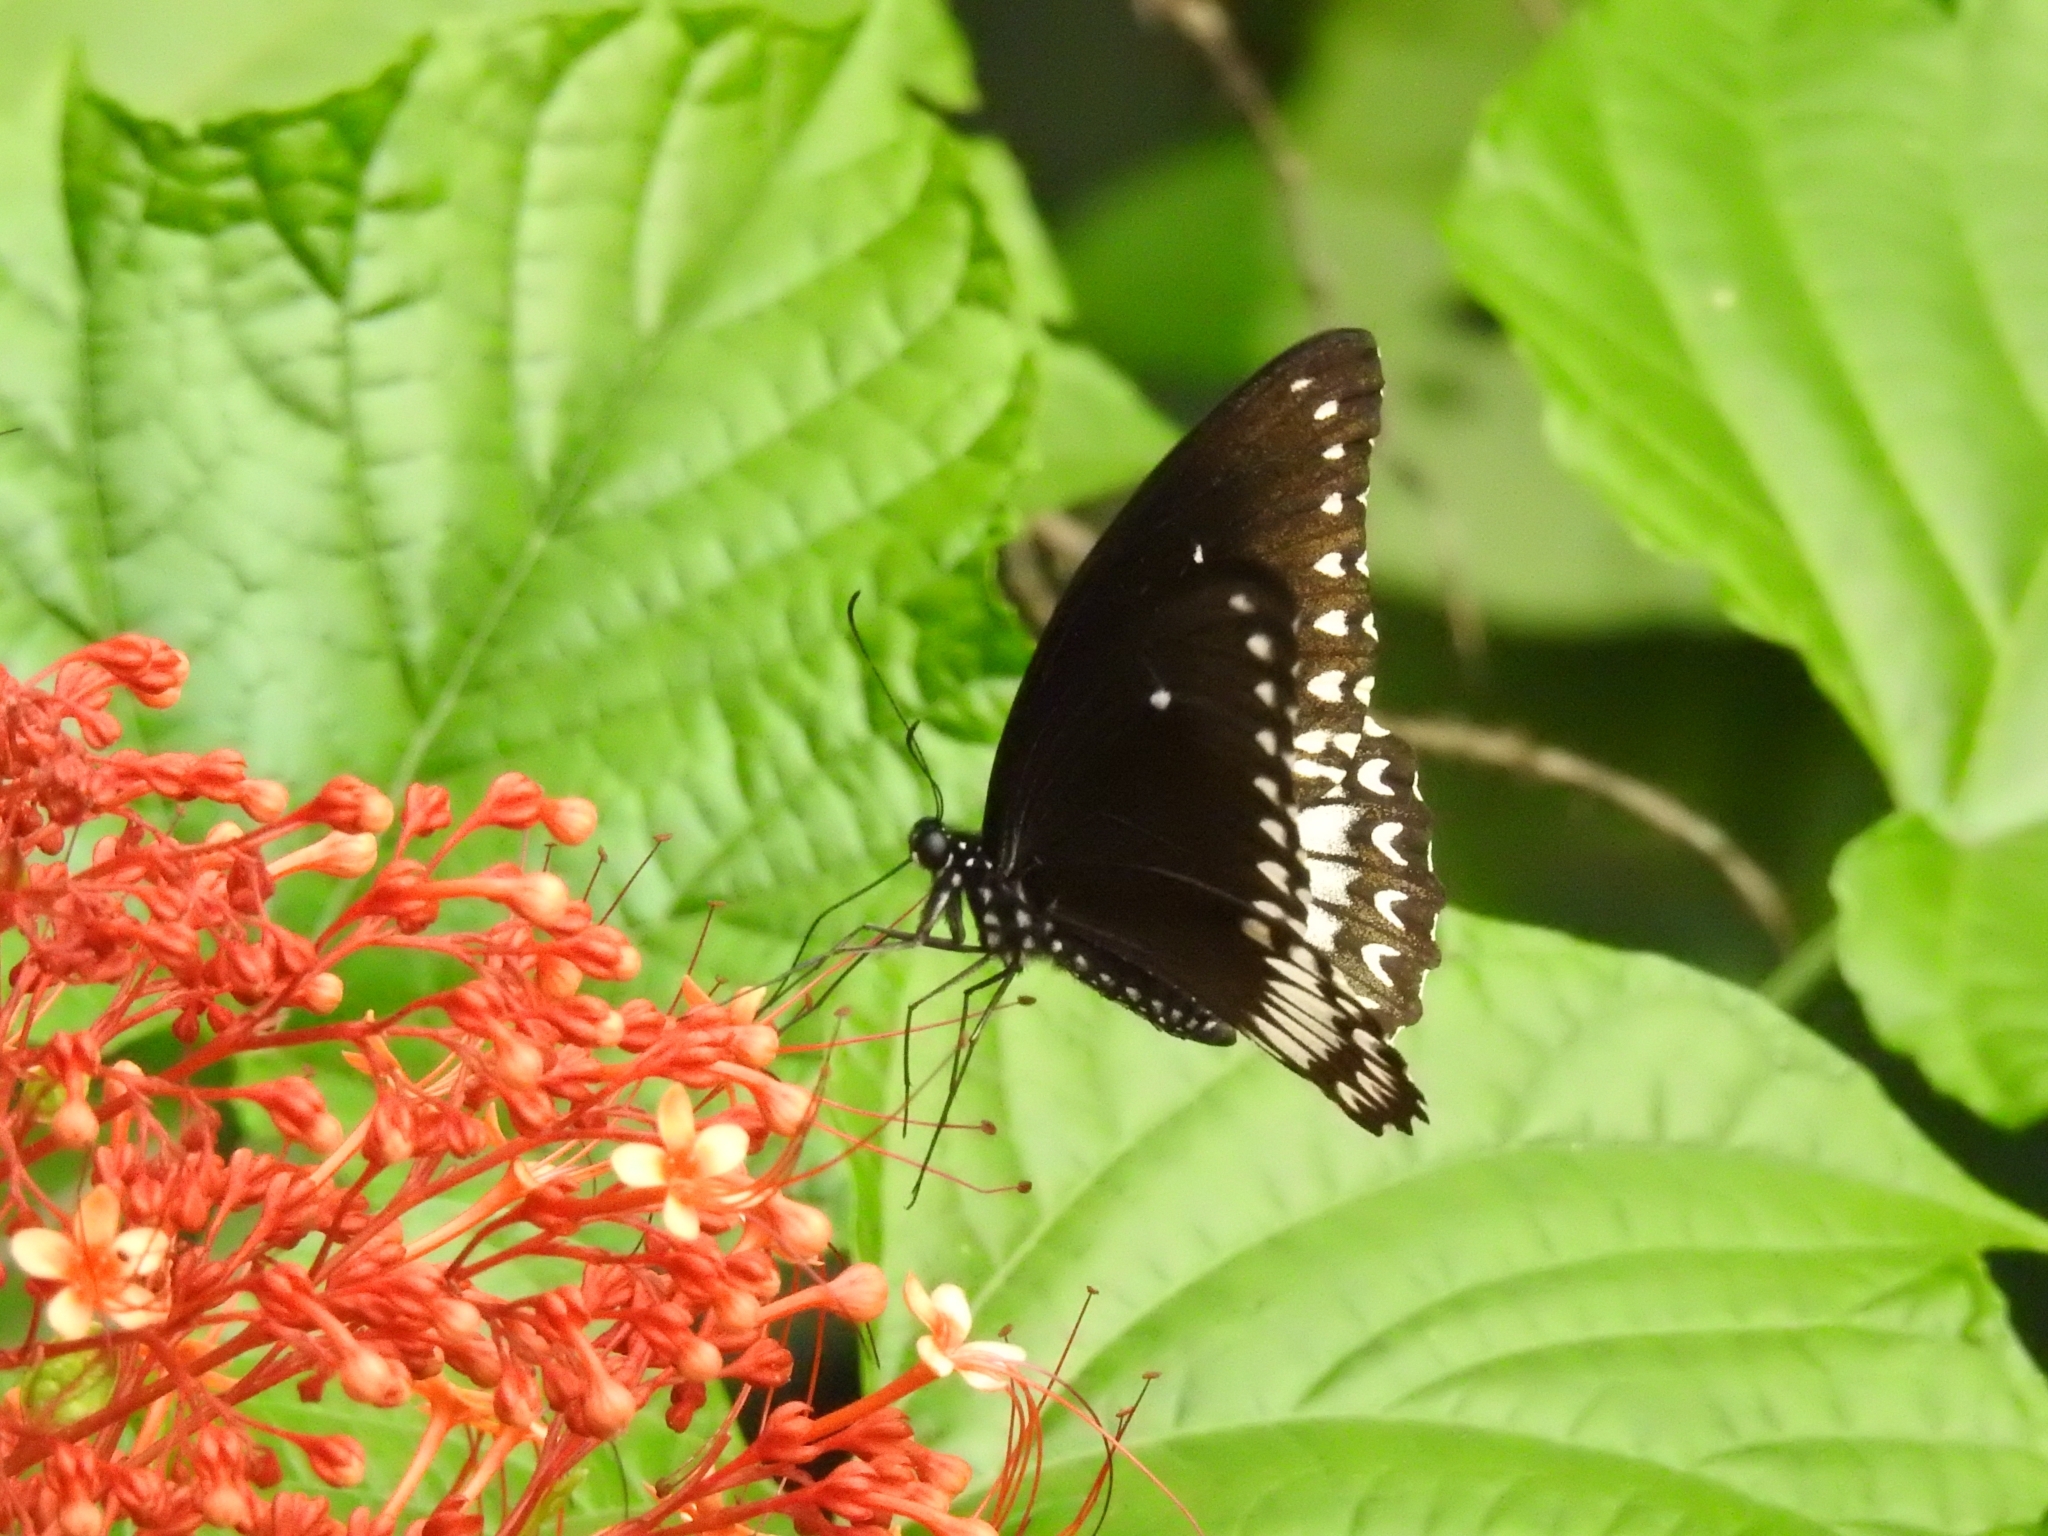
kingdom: Animalia
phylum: Arthropoda
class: Insecta
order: Lepidoptera
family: Papilionidae
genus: Papilio
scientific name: Papilio dravidarum
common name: Malabar raven
